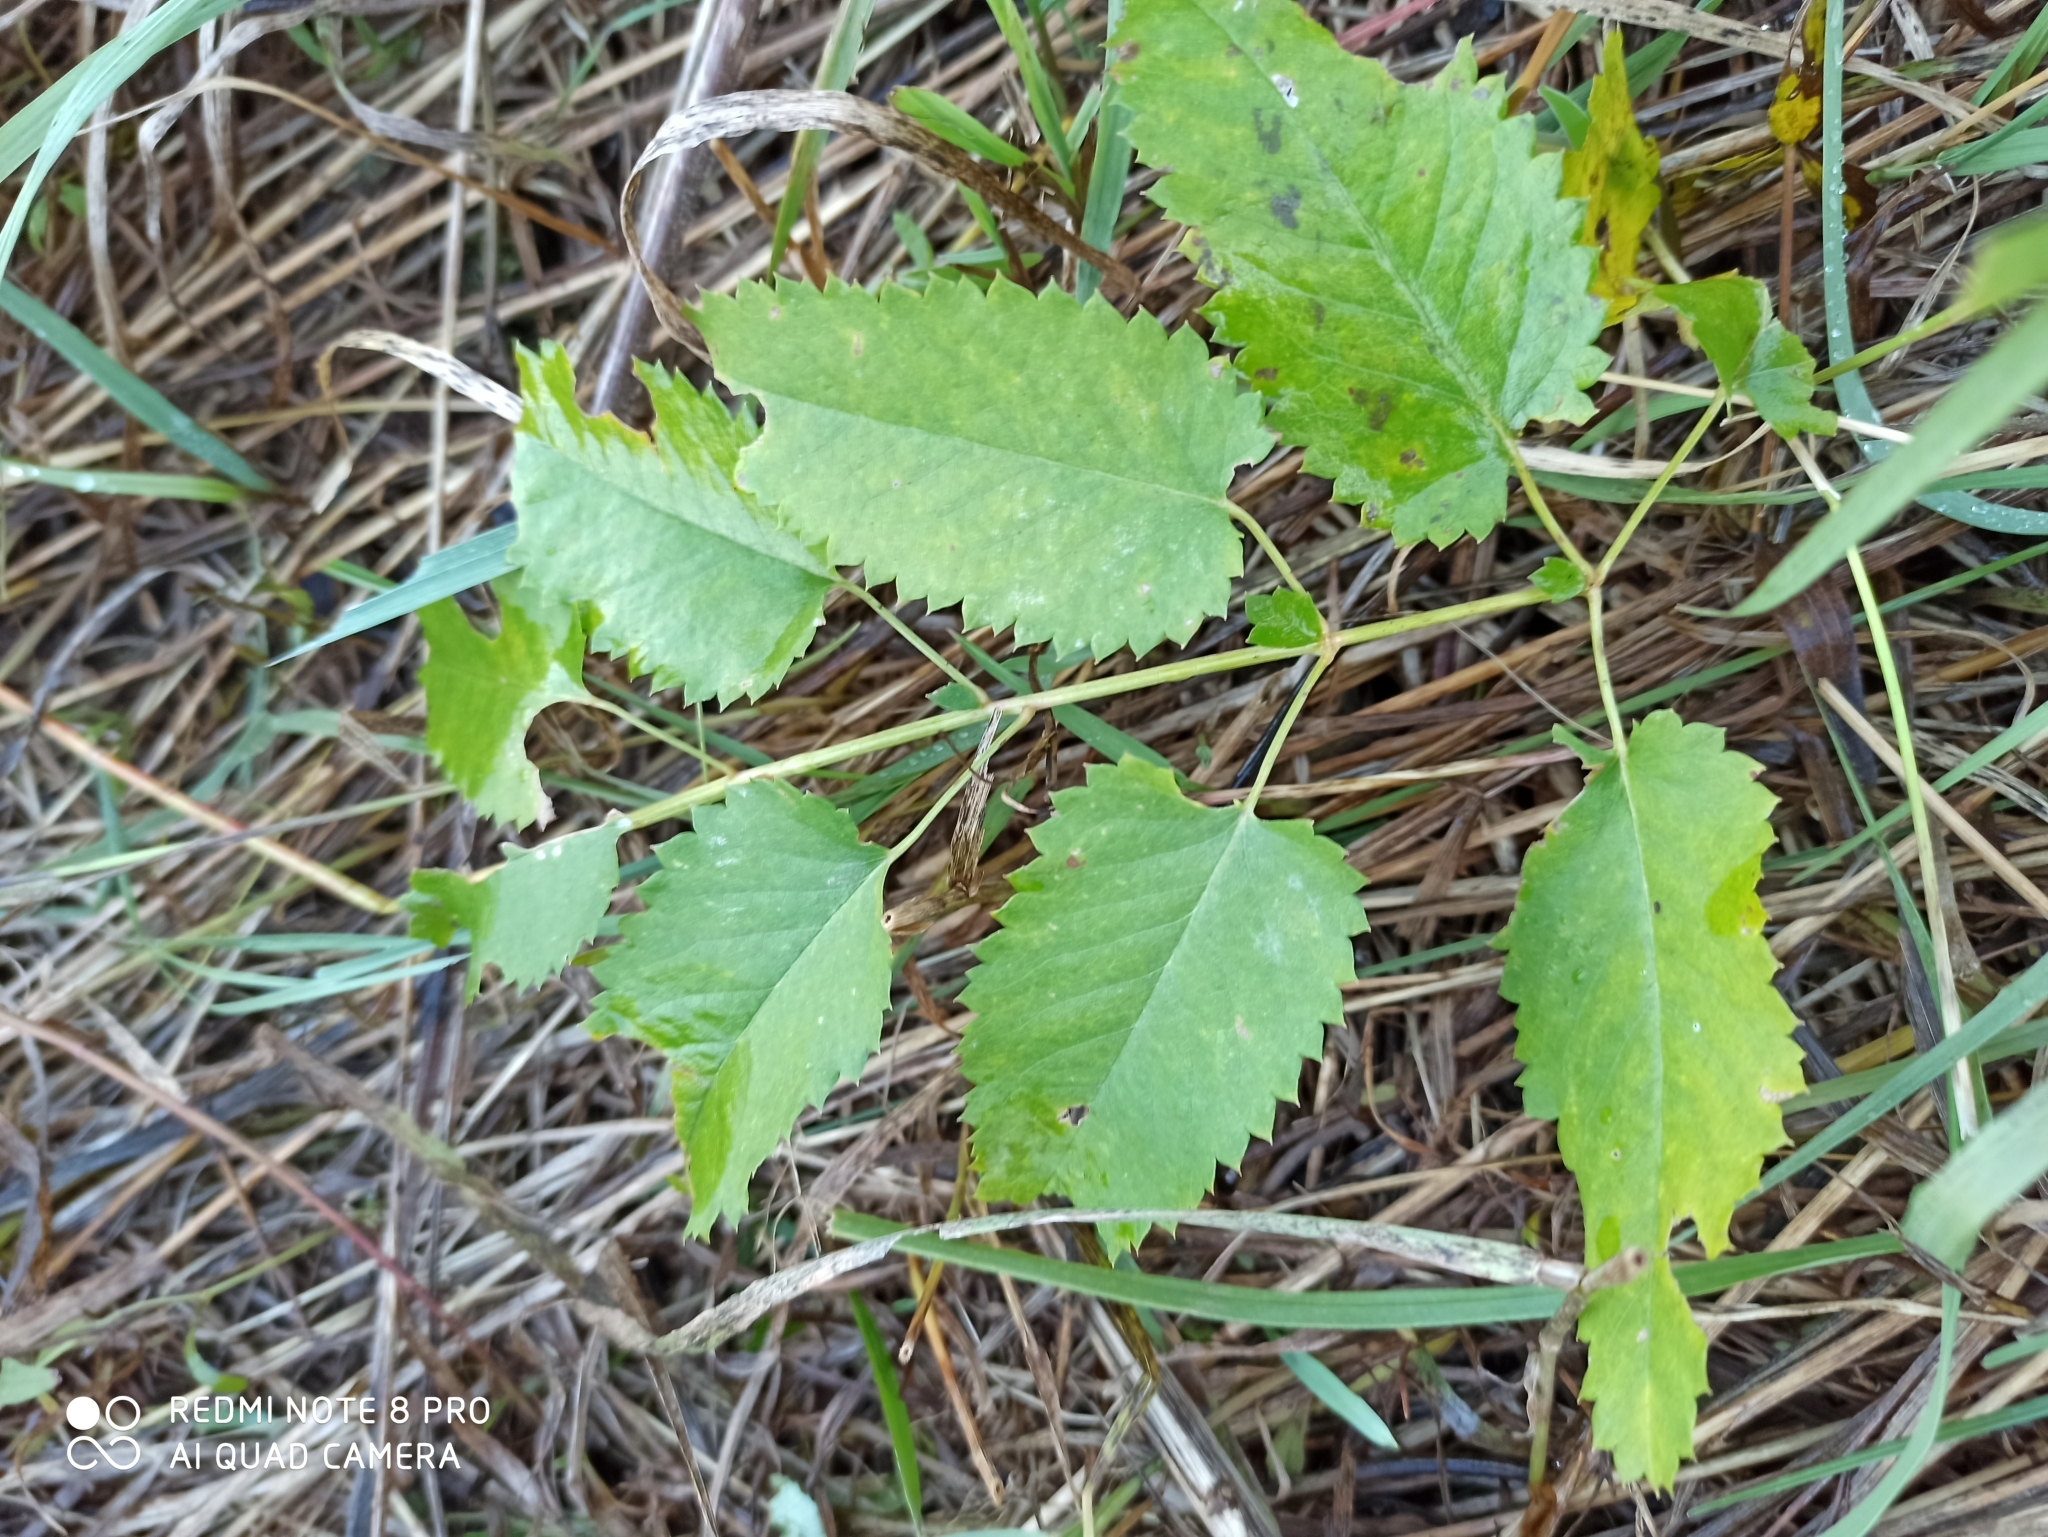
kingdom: Plantae
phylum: Tracheophyta
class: Magnoliopsida
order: Rosales
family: Rosaceae
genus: Sanguisorba
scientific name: Sanguisorba officinalis
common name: Great burnet
